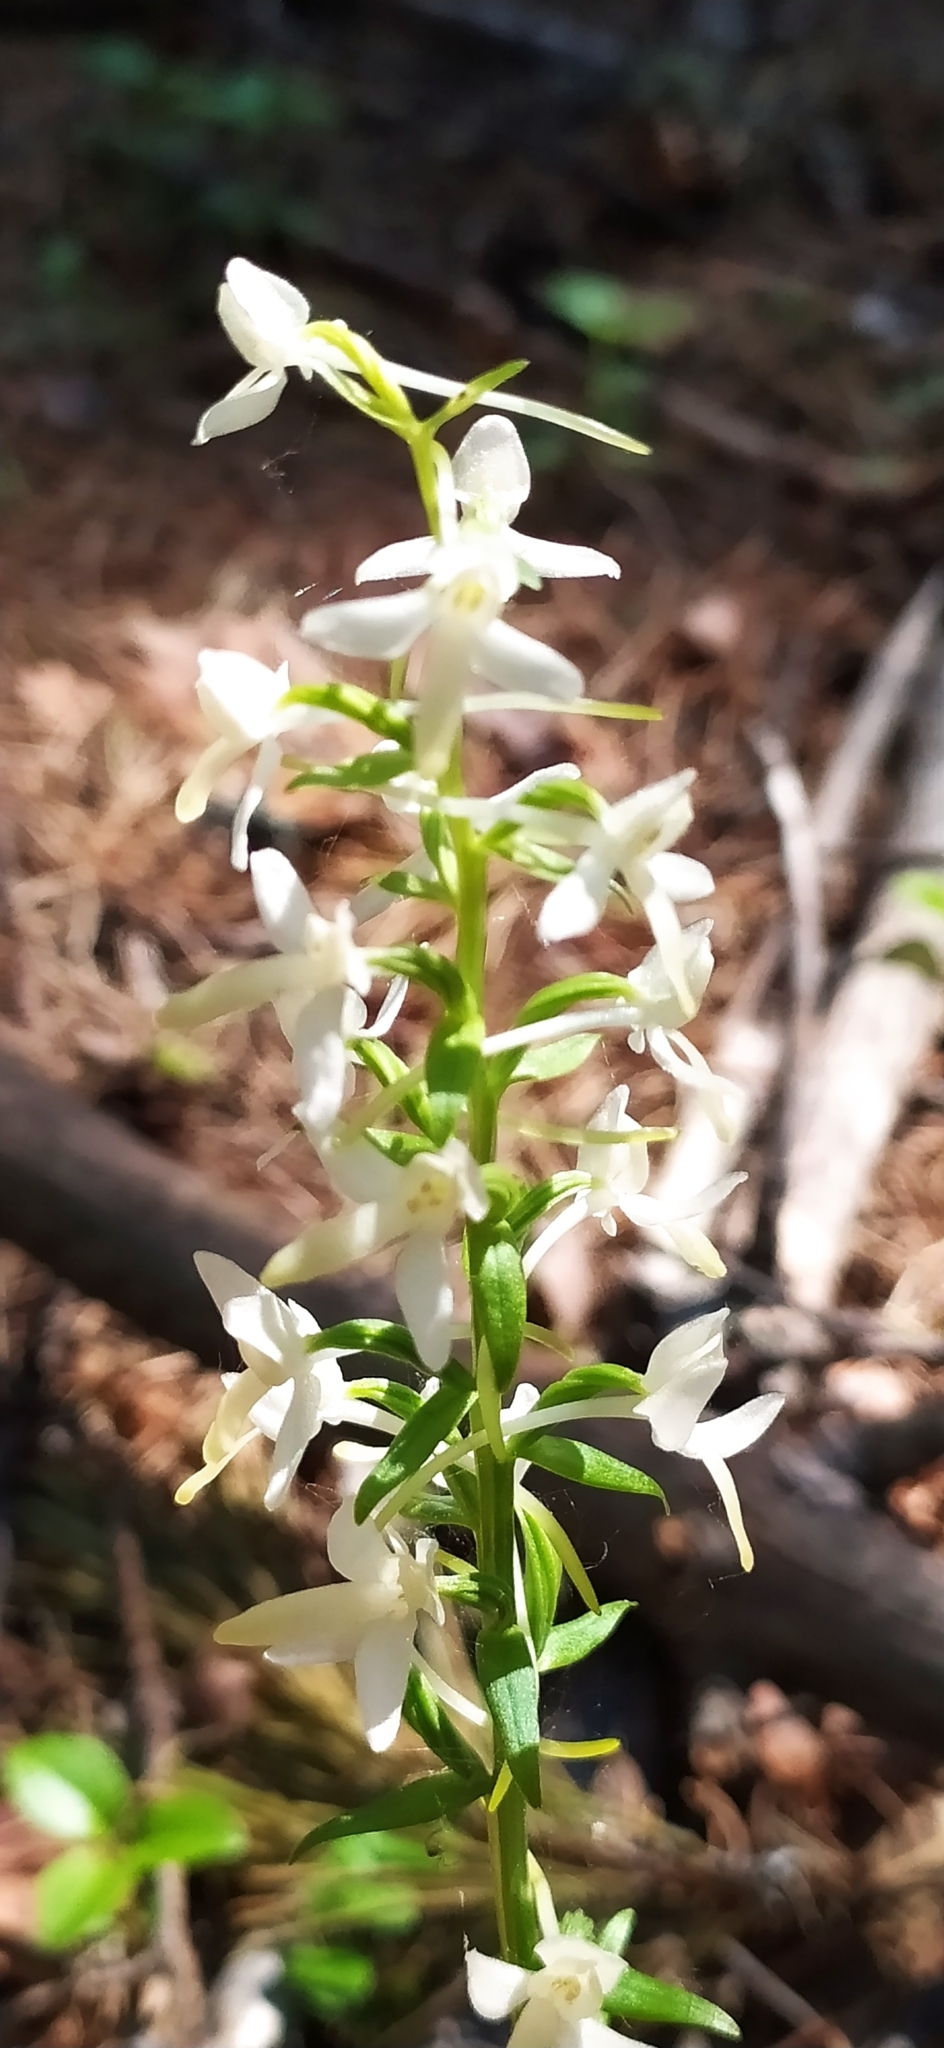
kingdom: Plantae
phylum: Tracheophyta
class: Liliopsida
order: Asparagales
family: Orchidaceae
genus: Platanthera
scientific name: Platanthera bifolia
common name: Lesser butterfly-orchid
